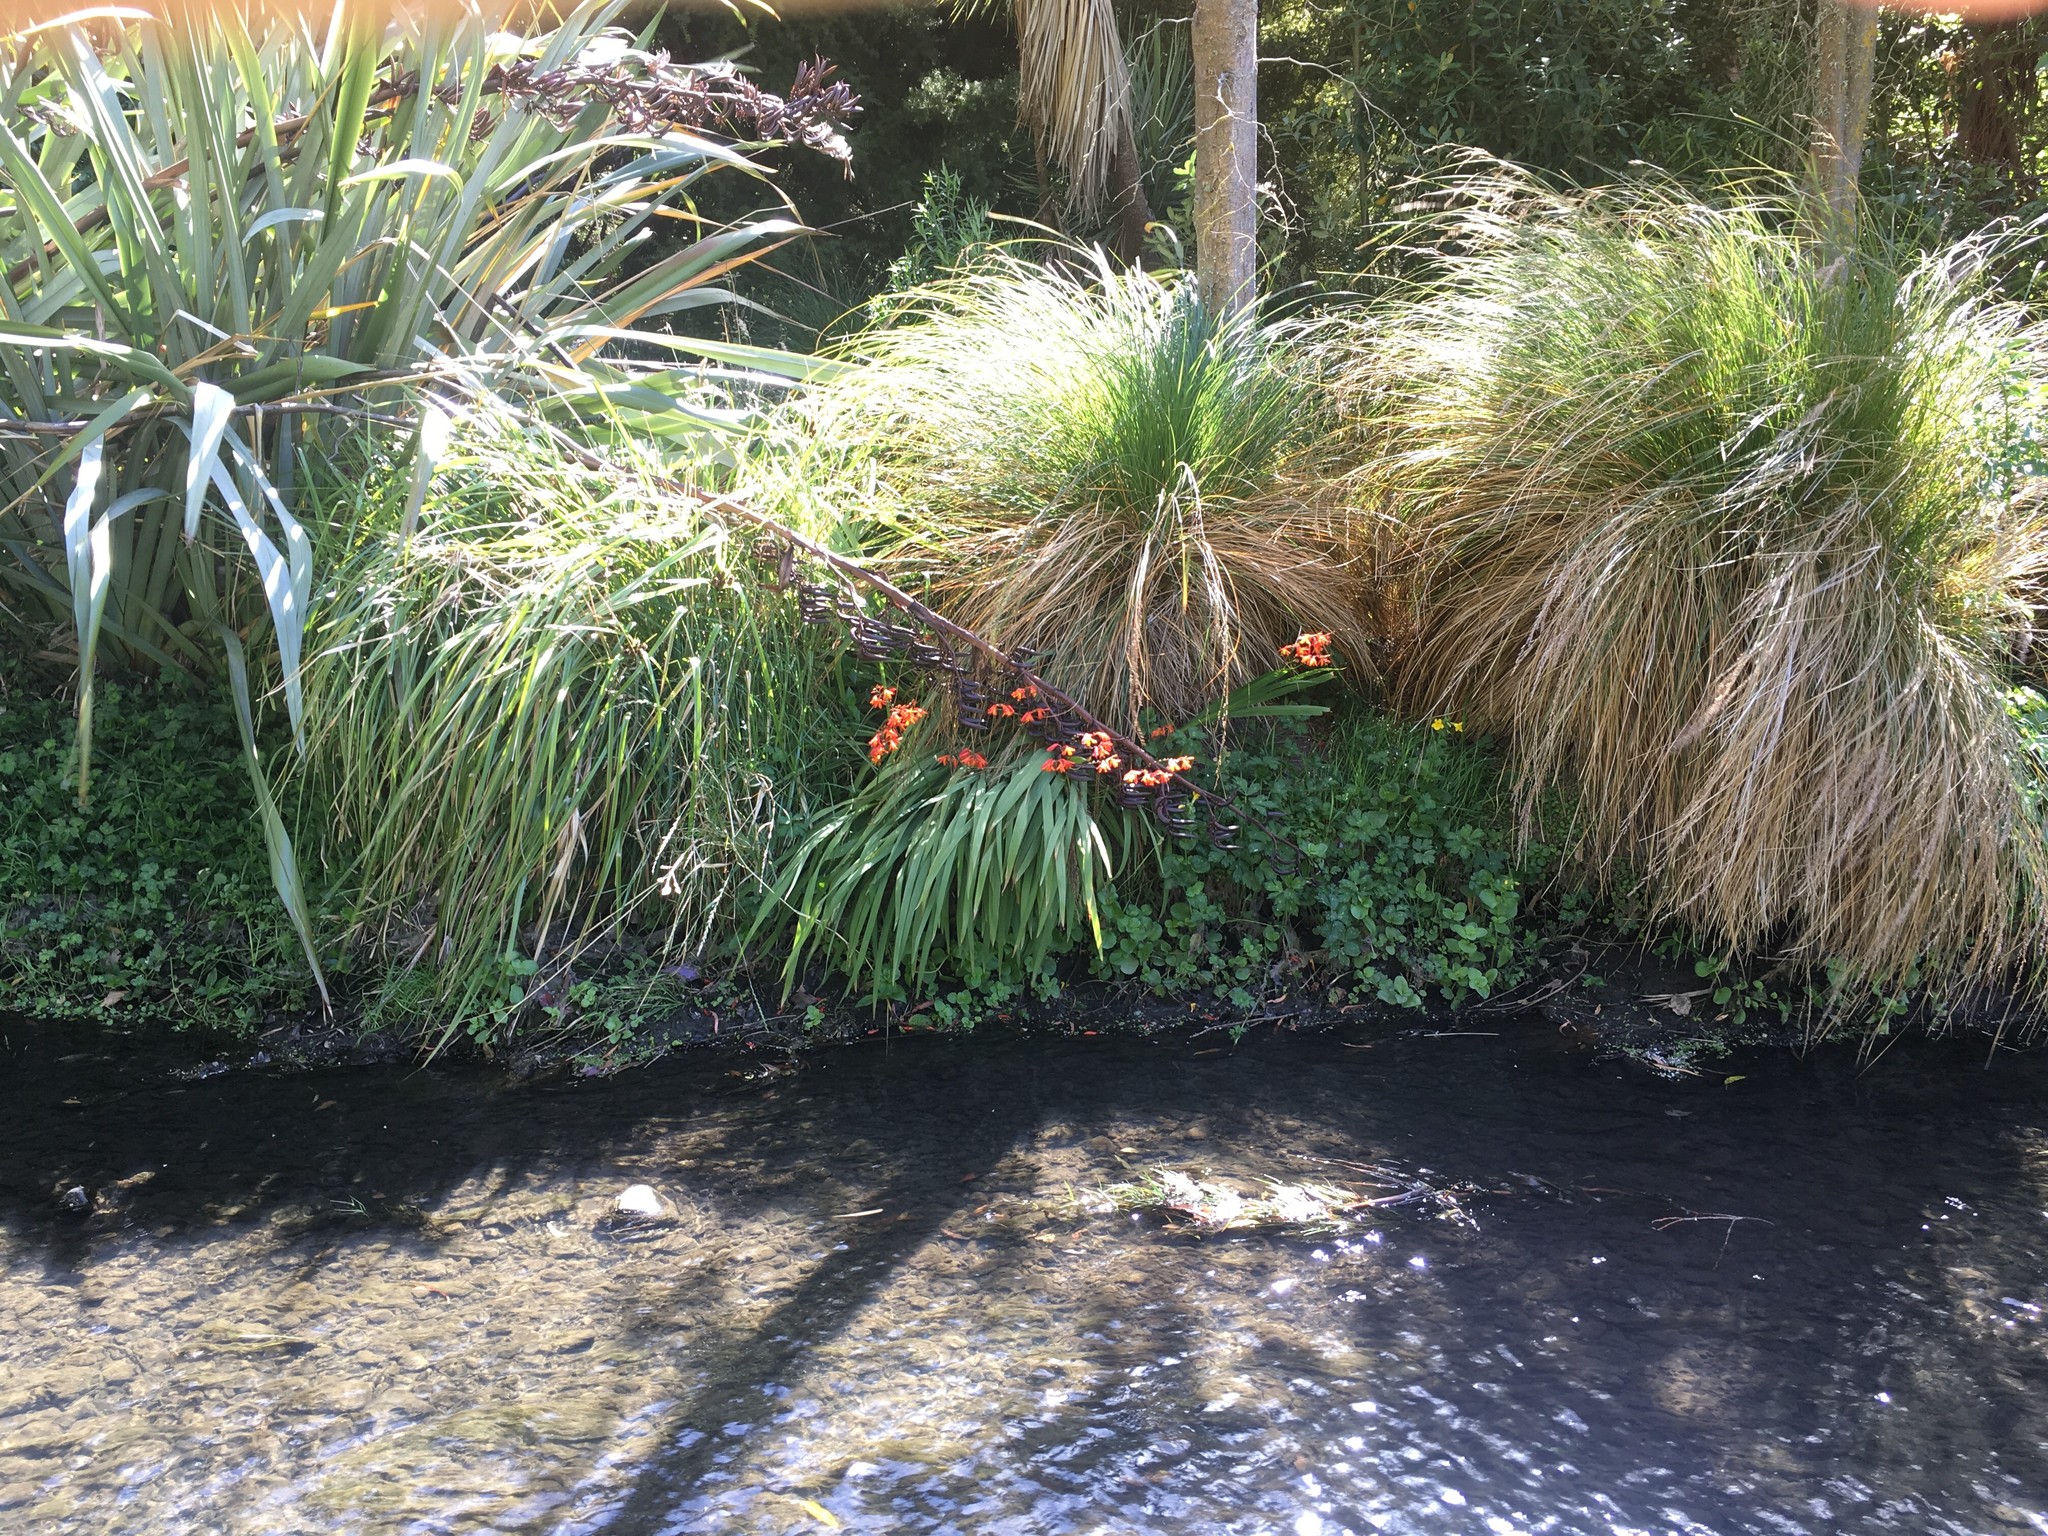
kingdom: Plantae
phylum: Tracheophyta
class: Liliopsida
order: Asparagales
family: Iridaceae
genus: Crocosmia
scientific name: Crocosmia crocosmiiflora
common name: Montbretia
